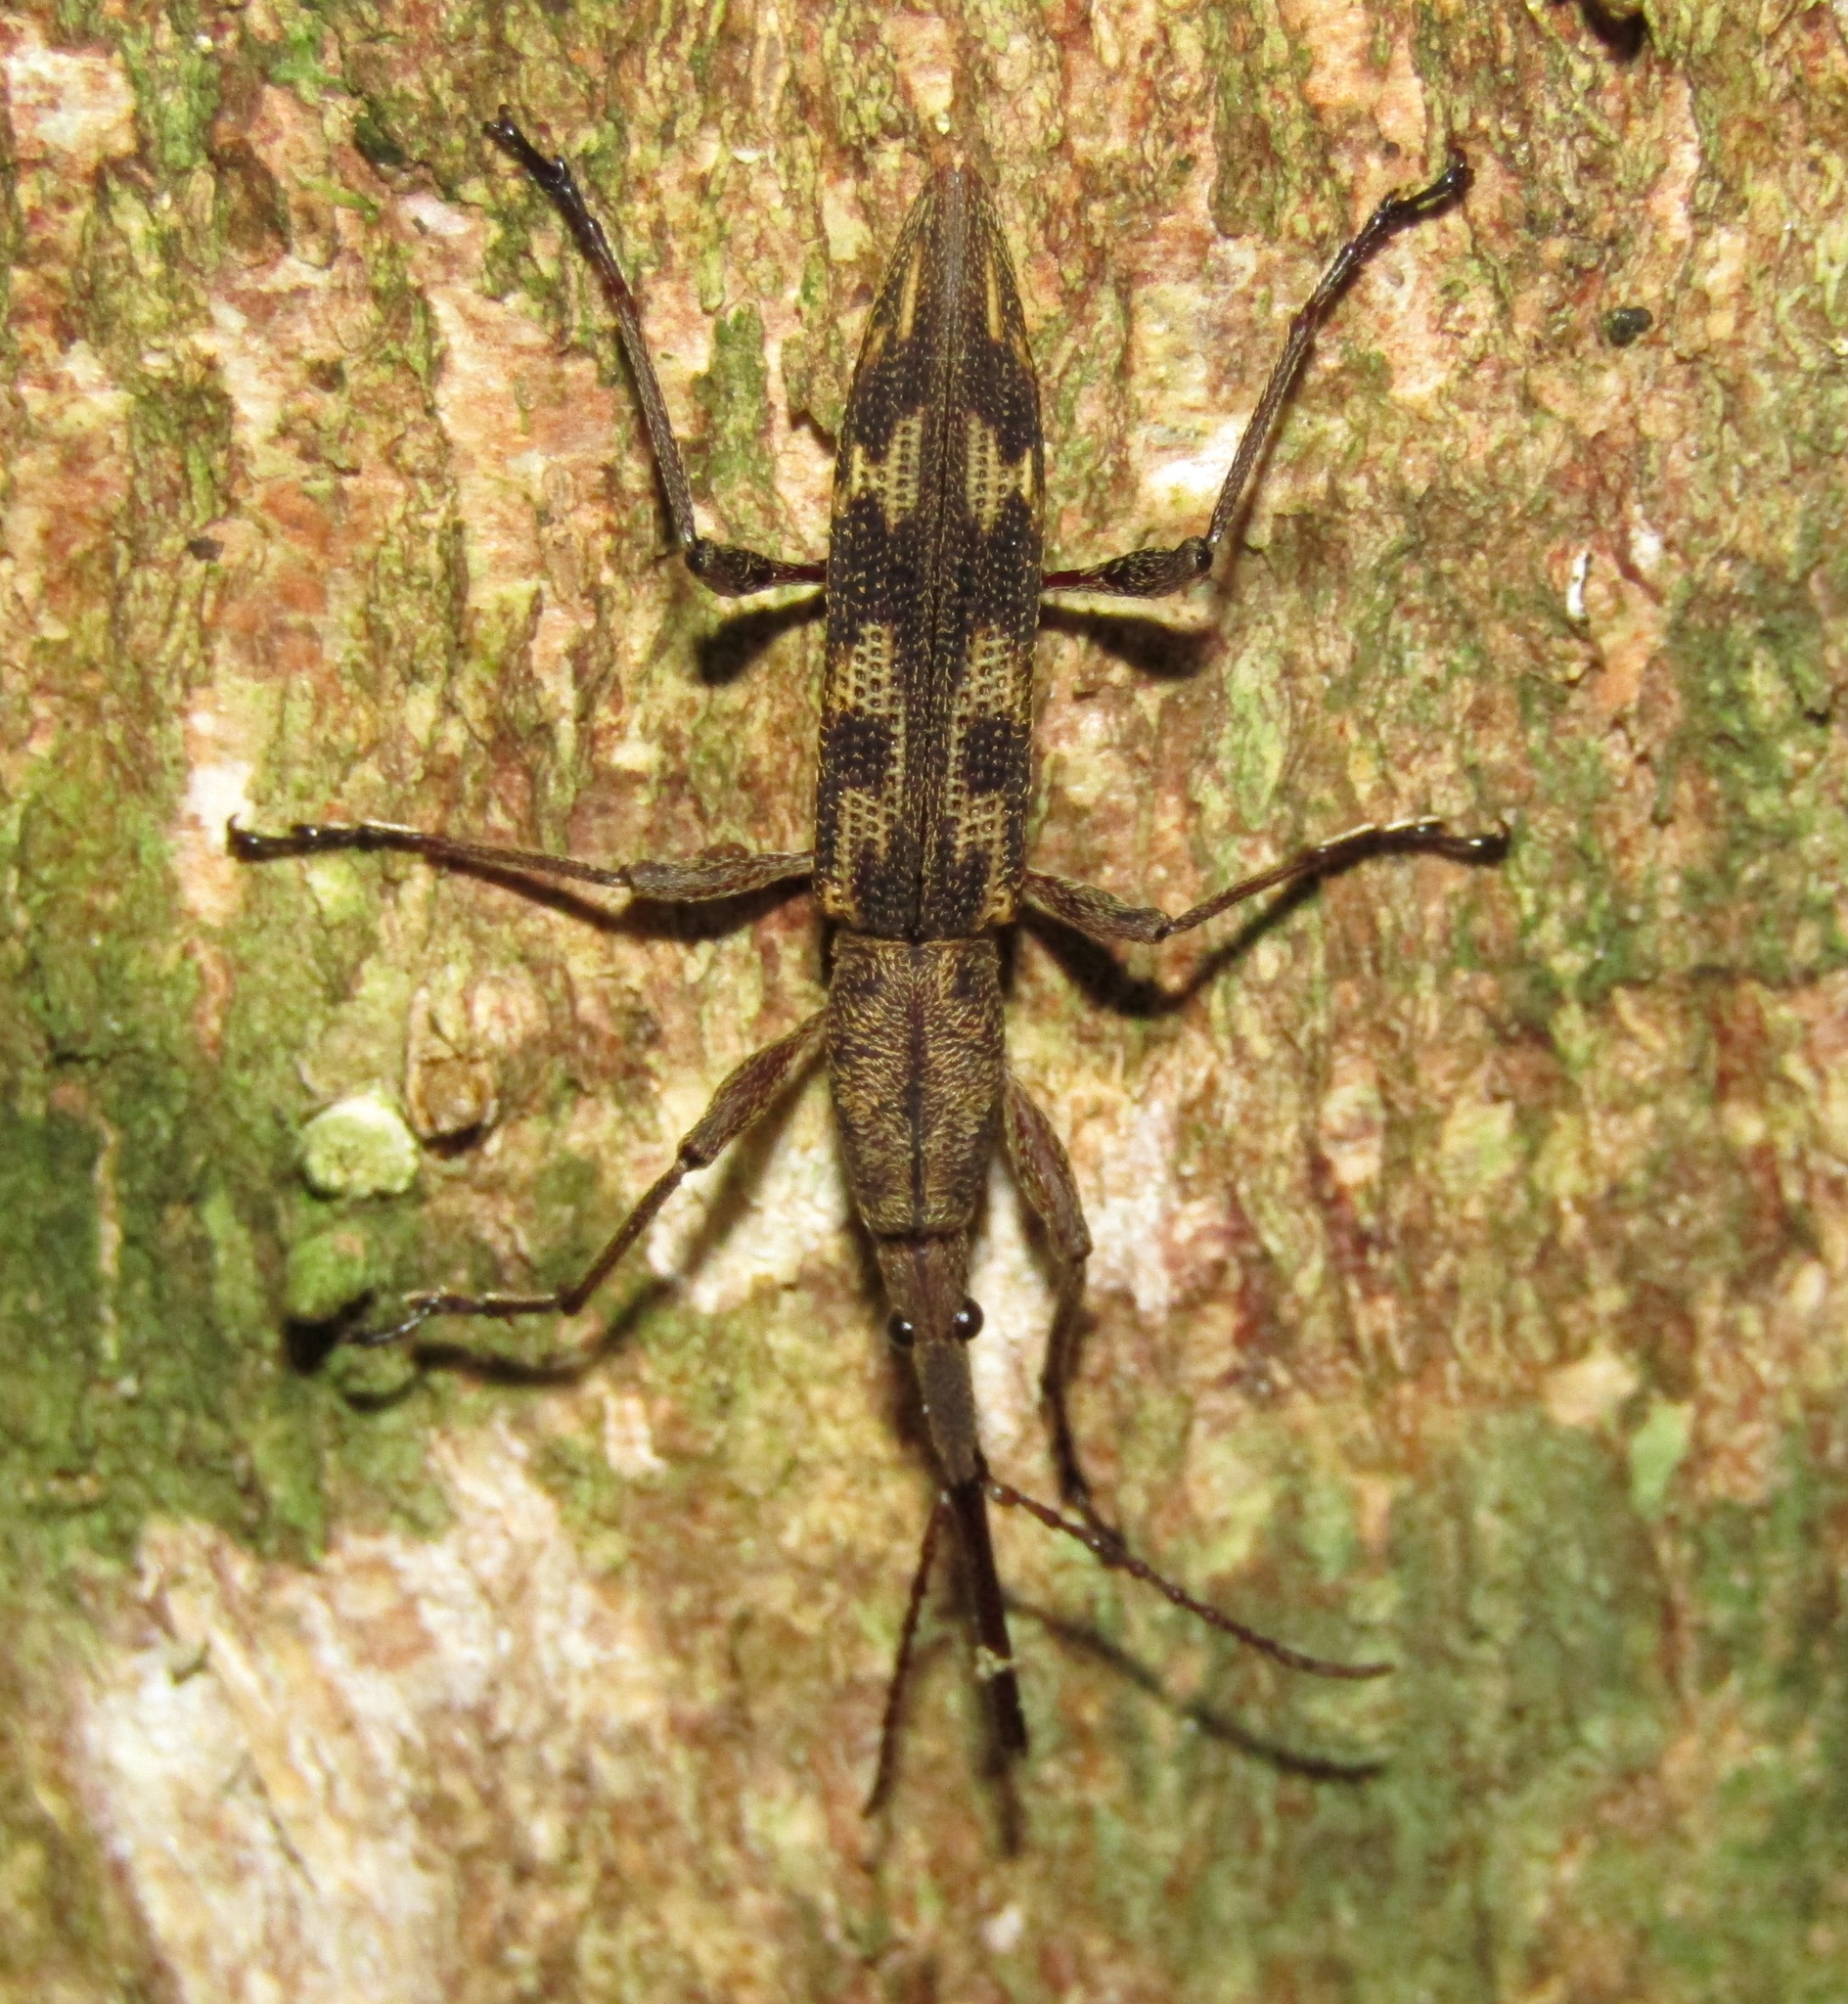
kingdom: Animalia
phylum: Arthropoda
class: Insecta
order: Coleoptera
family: Brentidae
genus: Lasiorhynchus
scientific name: Lasiorhynchus barbicornis
